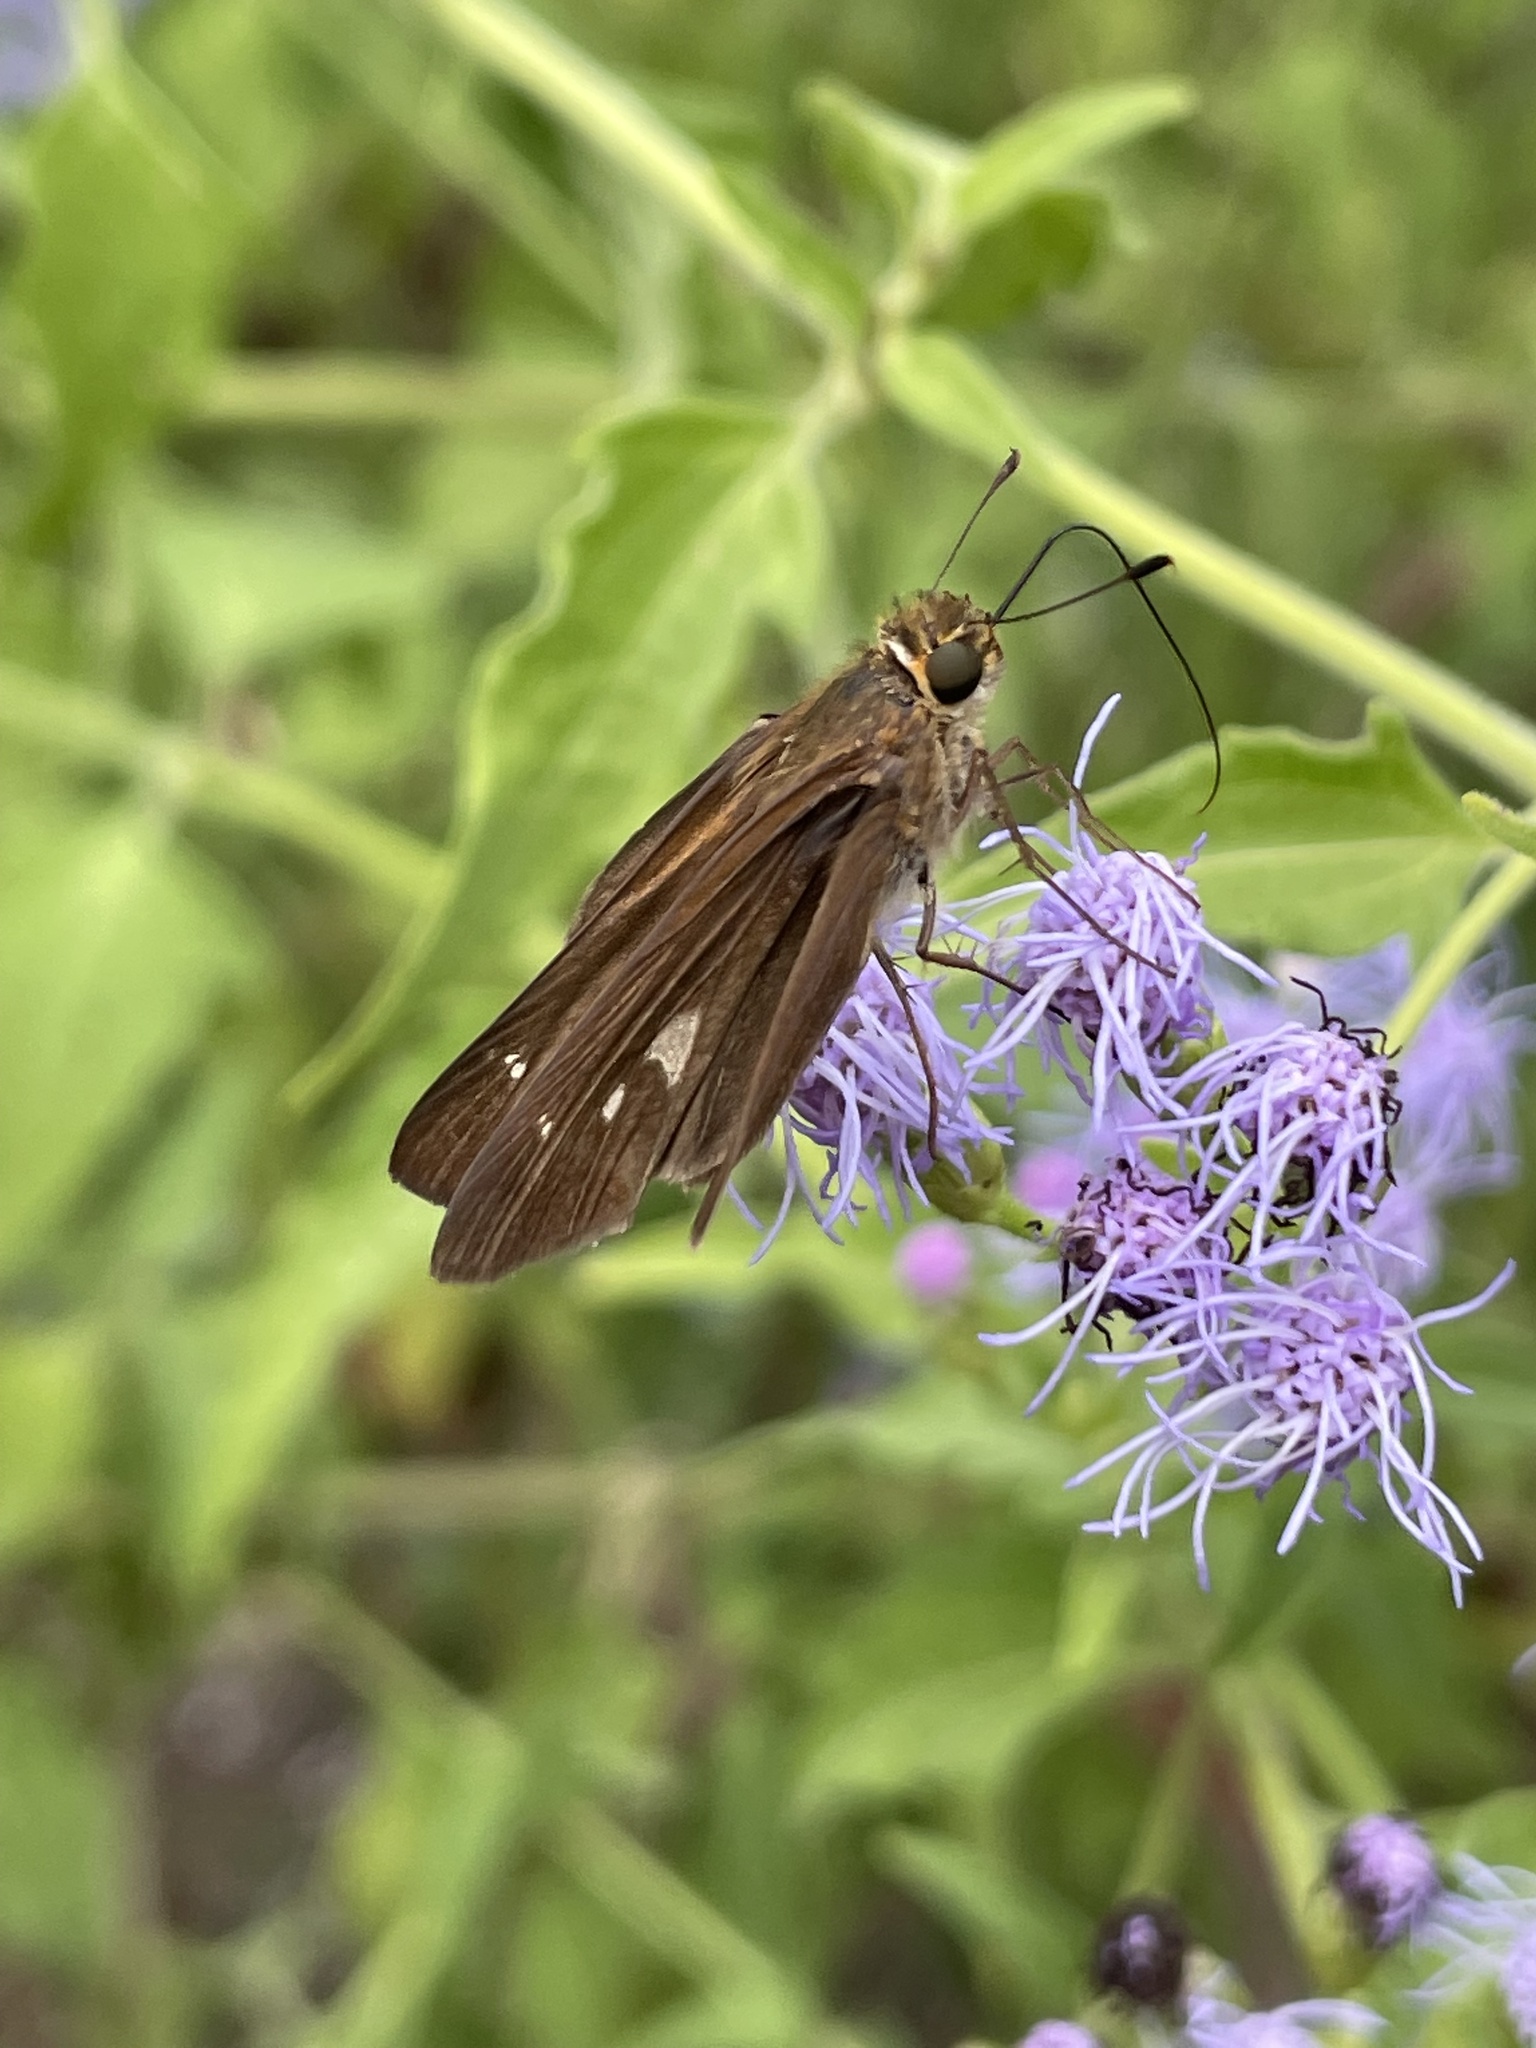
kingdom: Animalia
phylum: Arthropoda
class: Insecta
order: Lepidoptera
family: Hesperiidae
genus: Panoquina
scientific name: Panoquina ocola
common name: Ocola skipper
